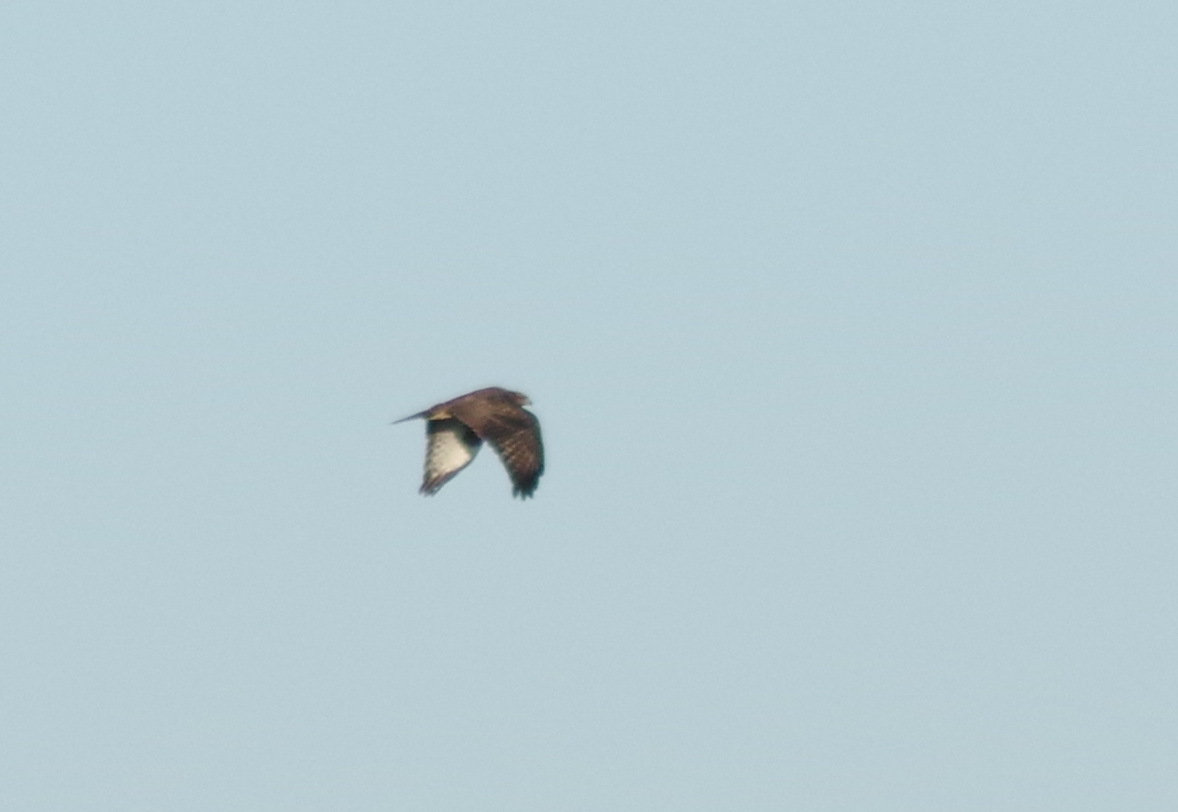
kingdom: Animalia
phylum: Chordata
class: Aves
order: Accipitriformes
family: Accipitridae
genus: Buteo
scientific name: Buteo buteo
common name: Common buzzard
